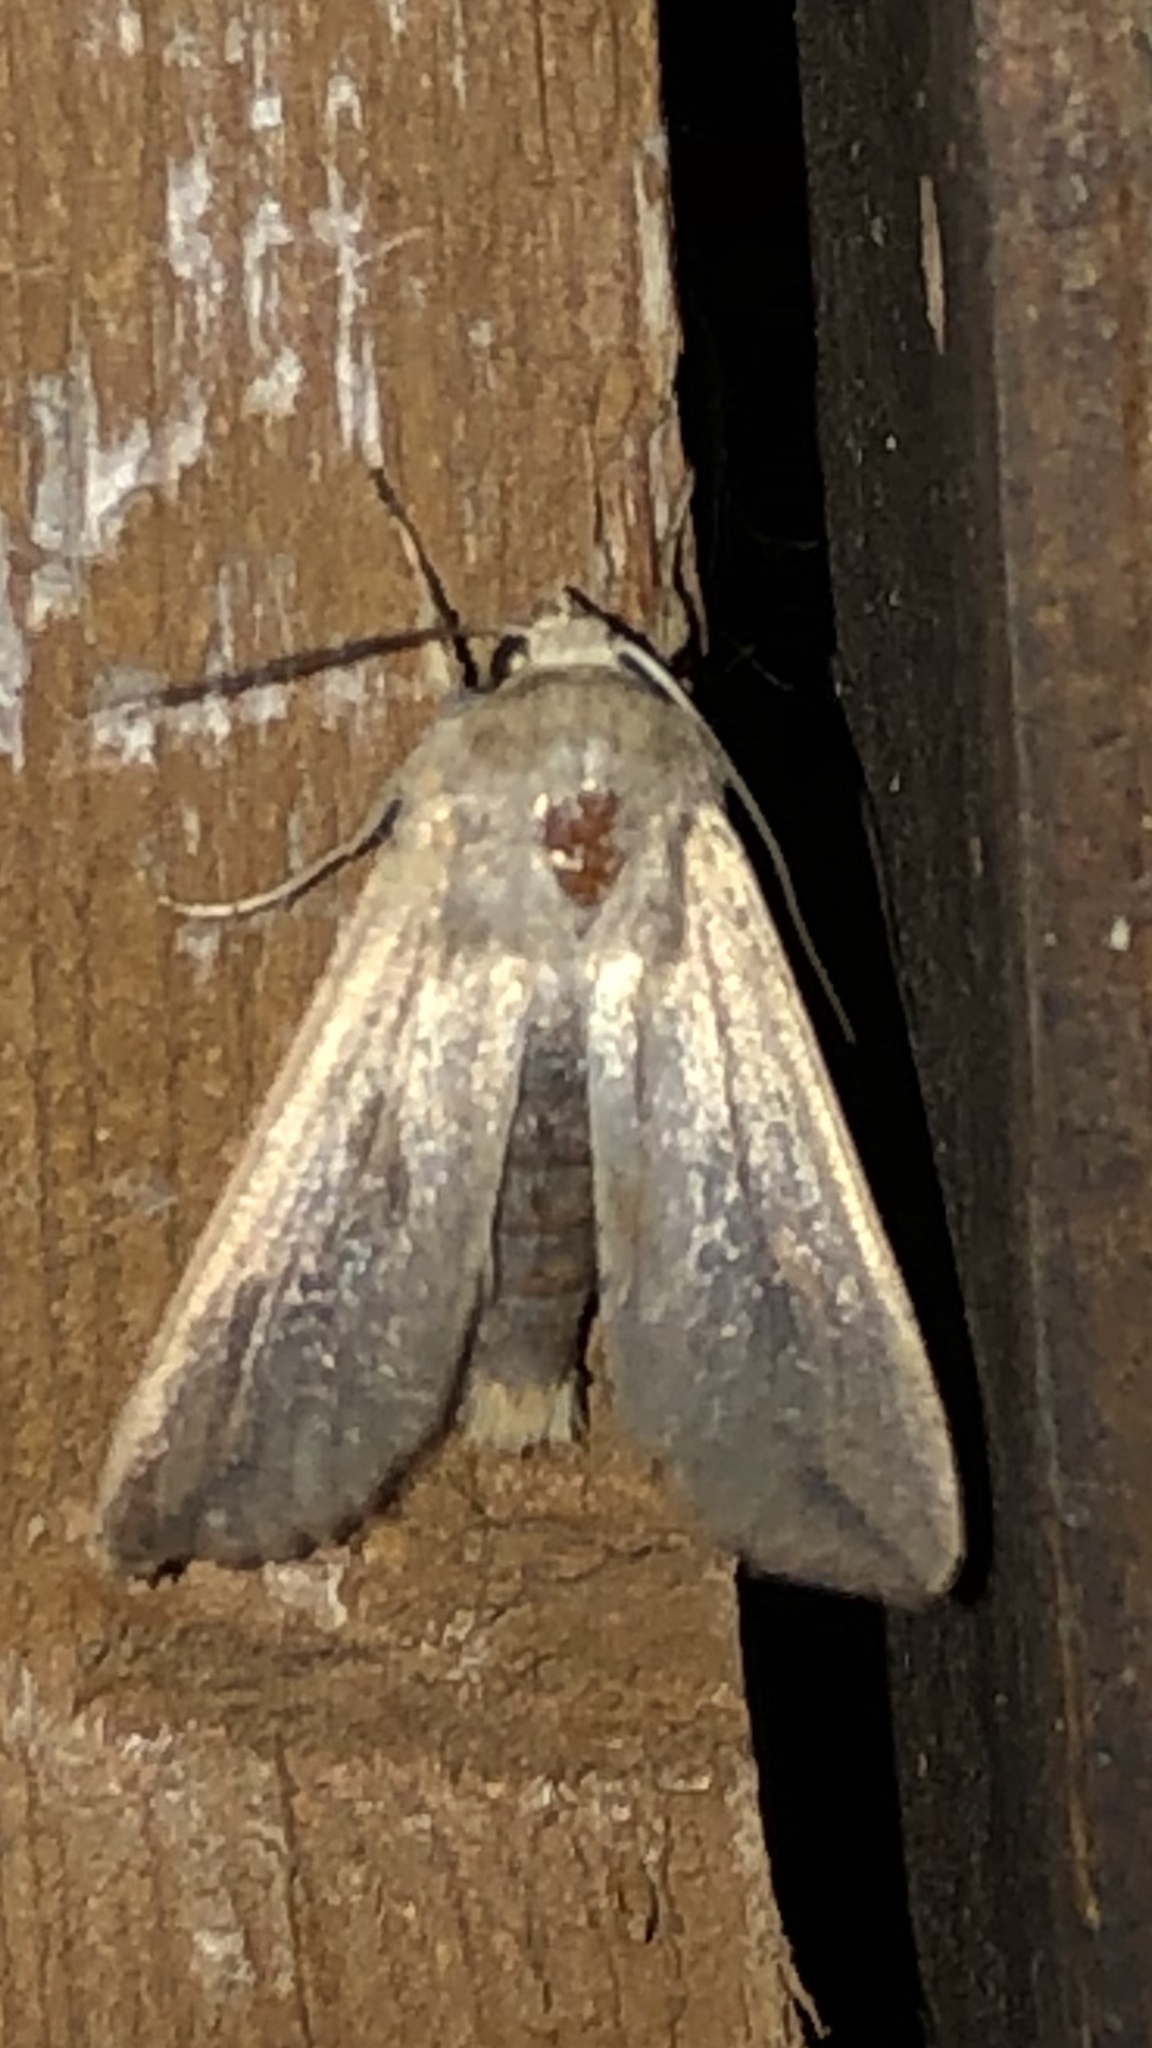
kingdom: Animalia
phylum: Arthropoda
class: Insecta
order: Lepidoptera
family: Noctuidae
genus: Mythimna
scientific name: Mythimna unipuncta
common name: White-speck
